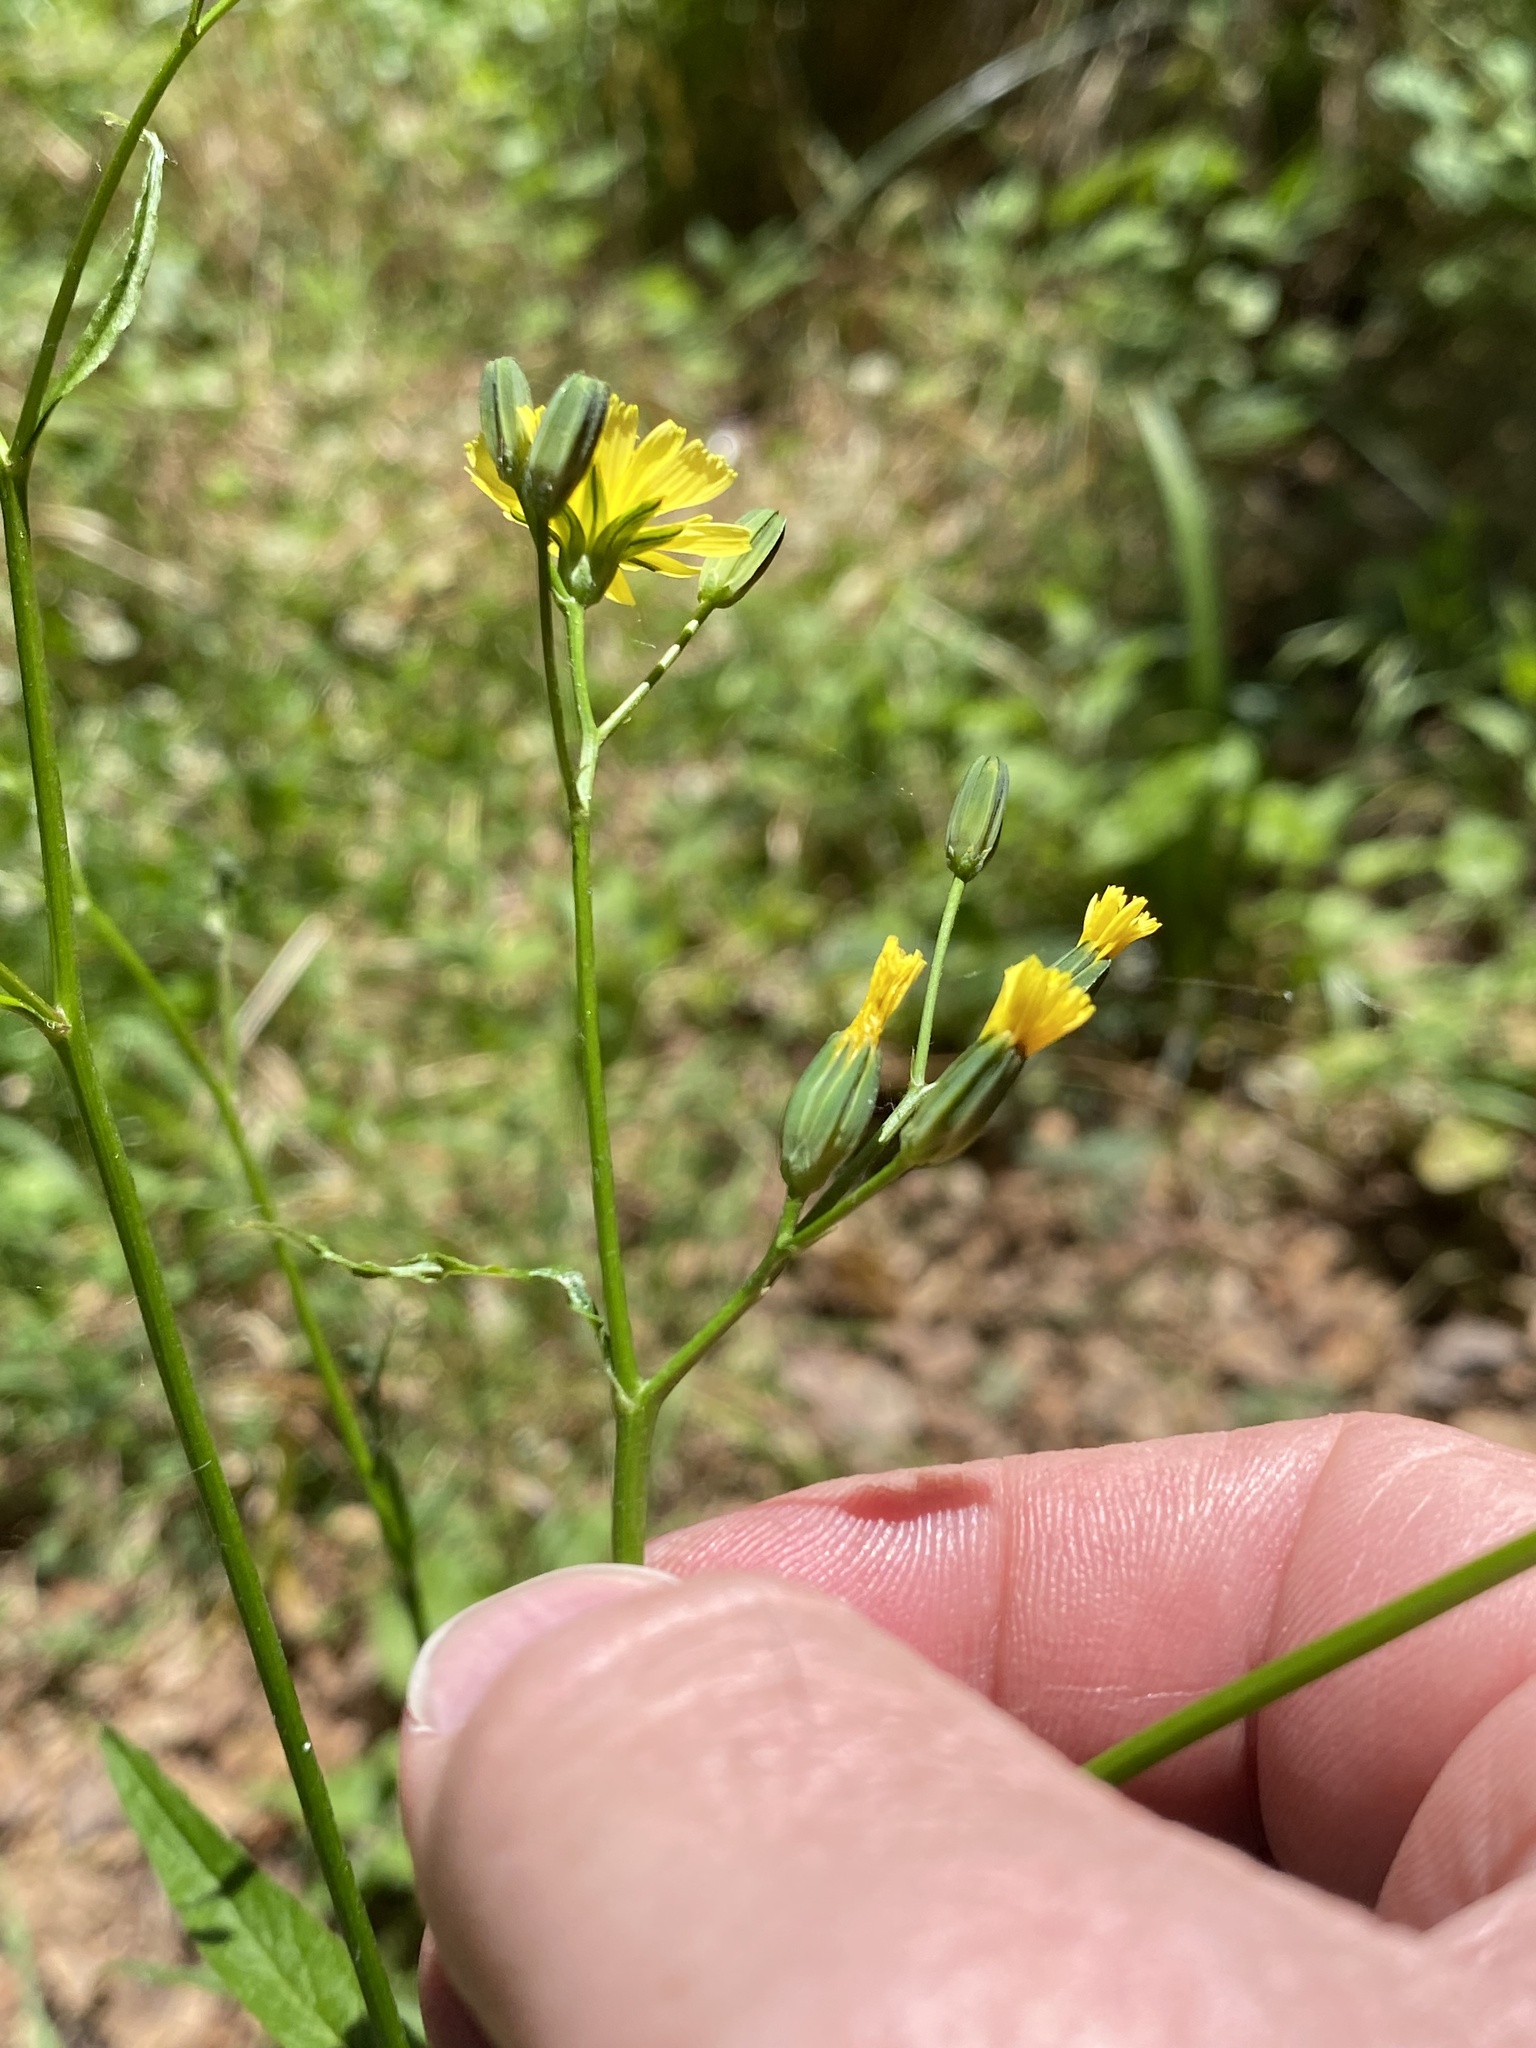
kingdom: Plantae
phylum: Tracheophyta
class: Magnoliopsida
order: Asterales
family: Asteraceae
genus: Lapsana
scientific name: Lapsana communis
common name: Nipplewort
